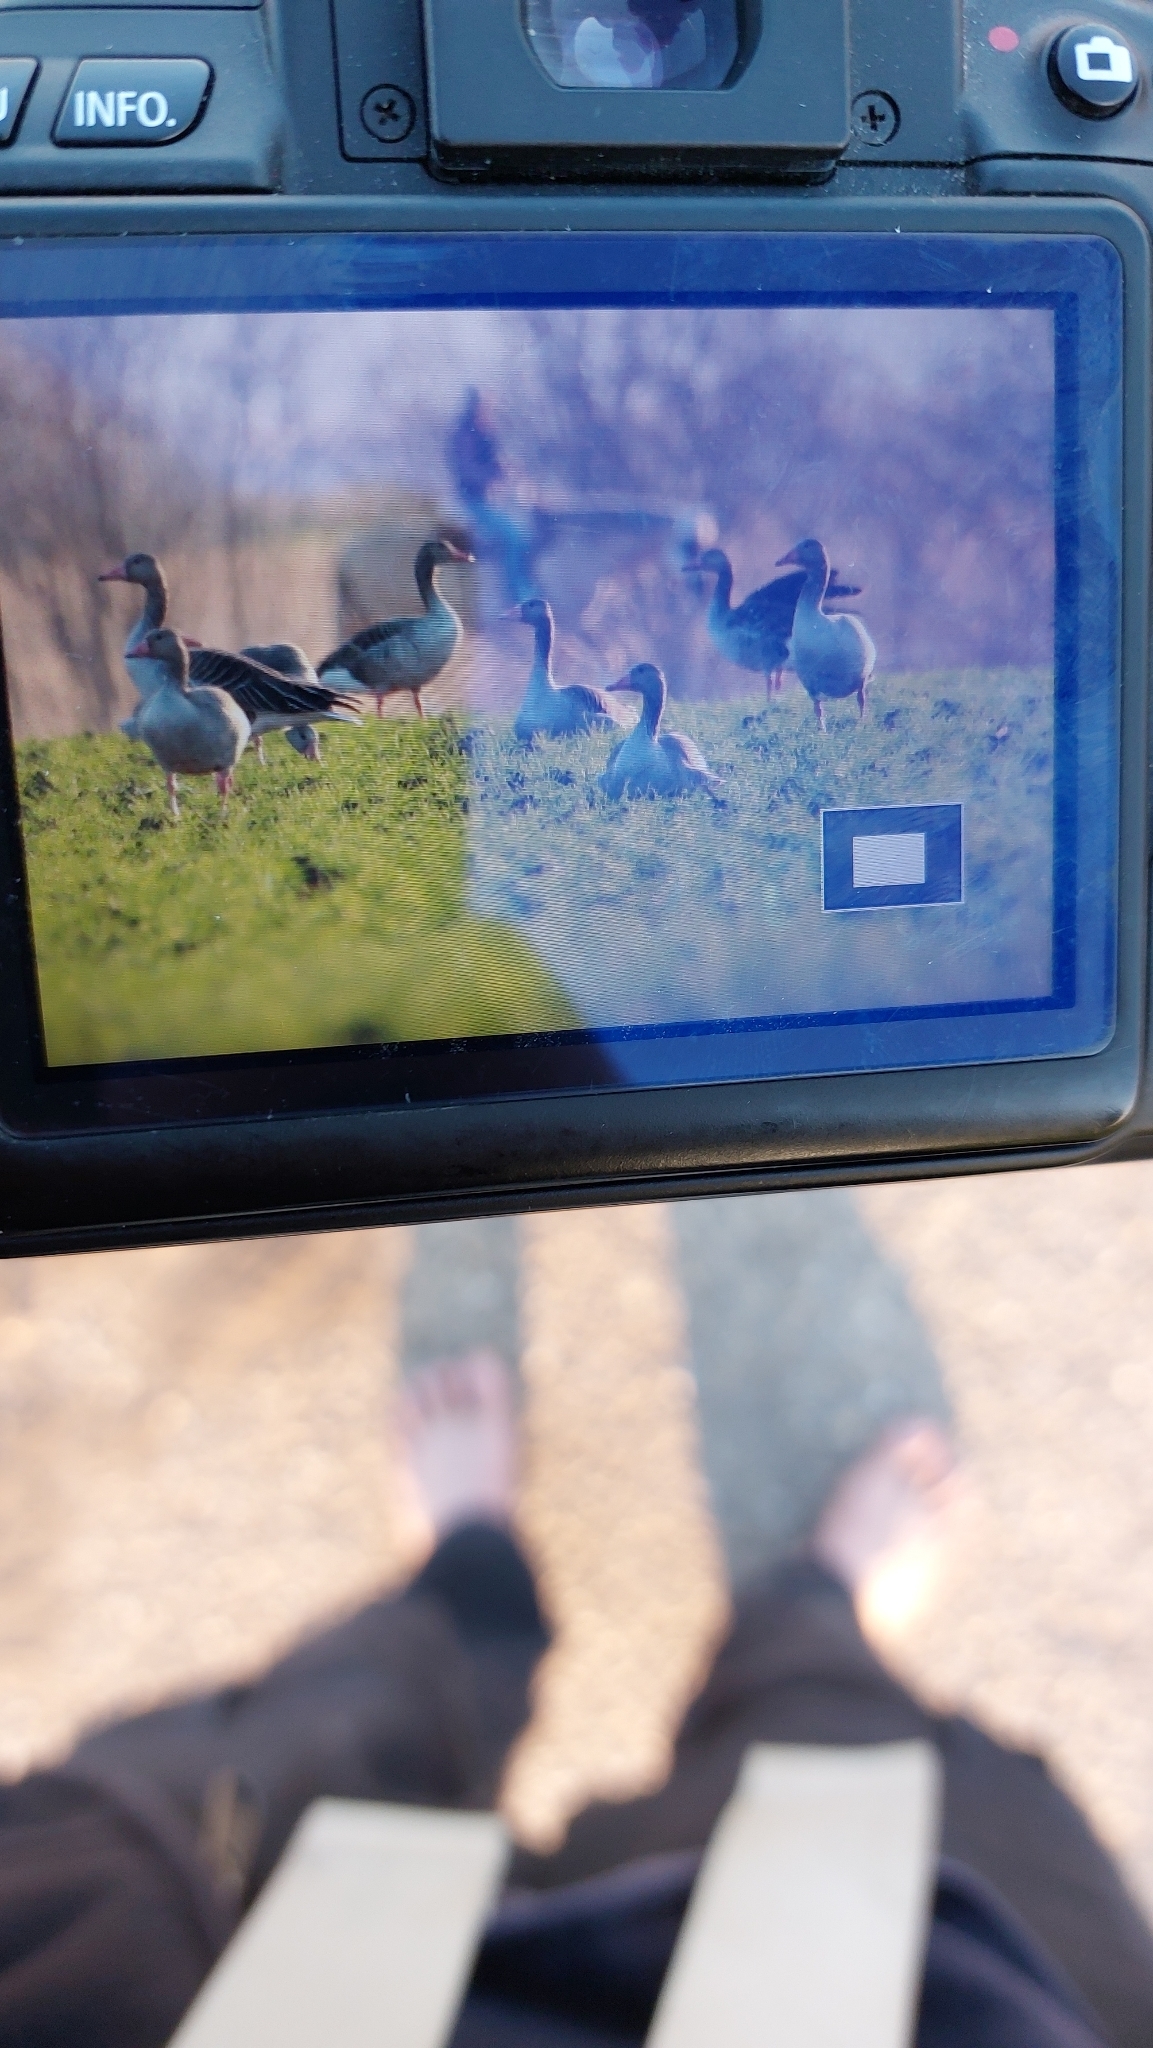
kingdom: Animalia
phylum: Chordata
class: Aves
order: Anseriformes
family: Anatidae
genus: Anser
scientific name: Anser anser
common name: Greylag goose
